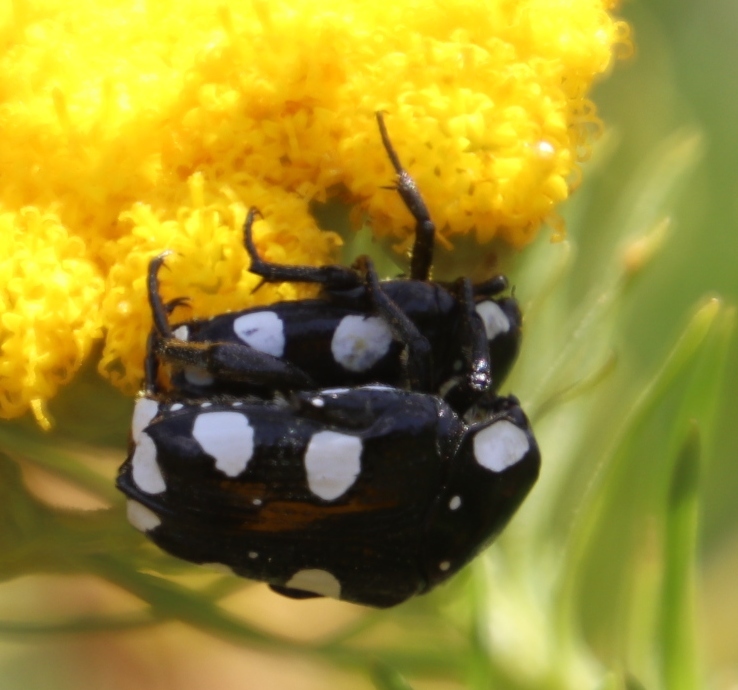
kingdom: Animalia
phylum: Arthropoda
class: Insecta
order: Coleoptera
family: Scarabaeidae
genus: Mausoleopsis
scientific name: Mausoleopsis amabilis
